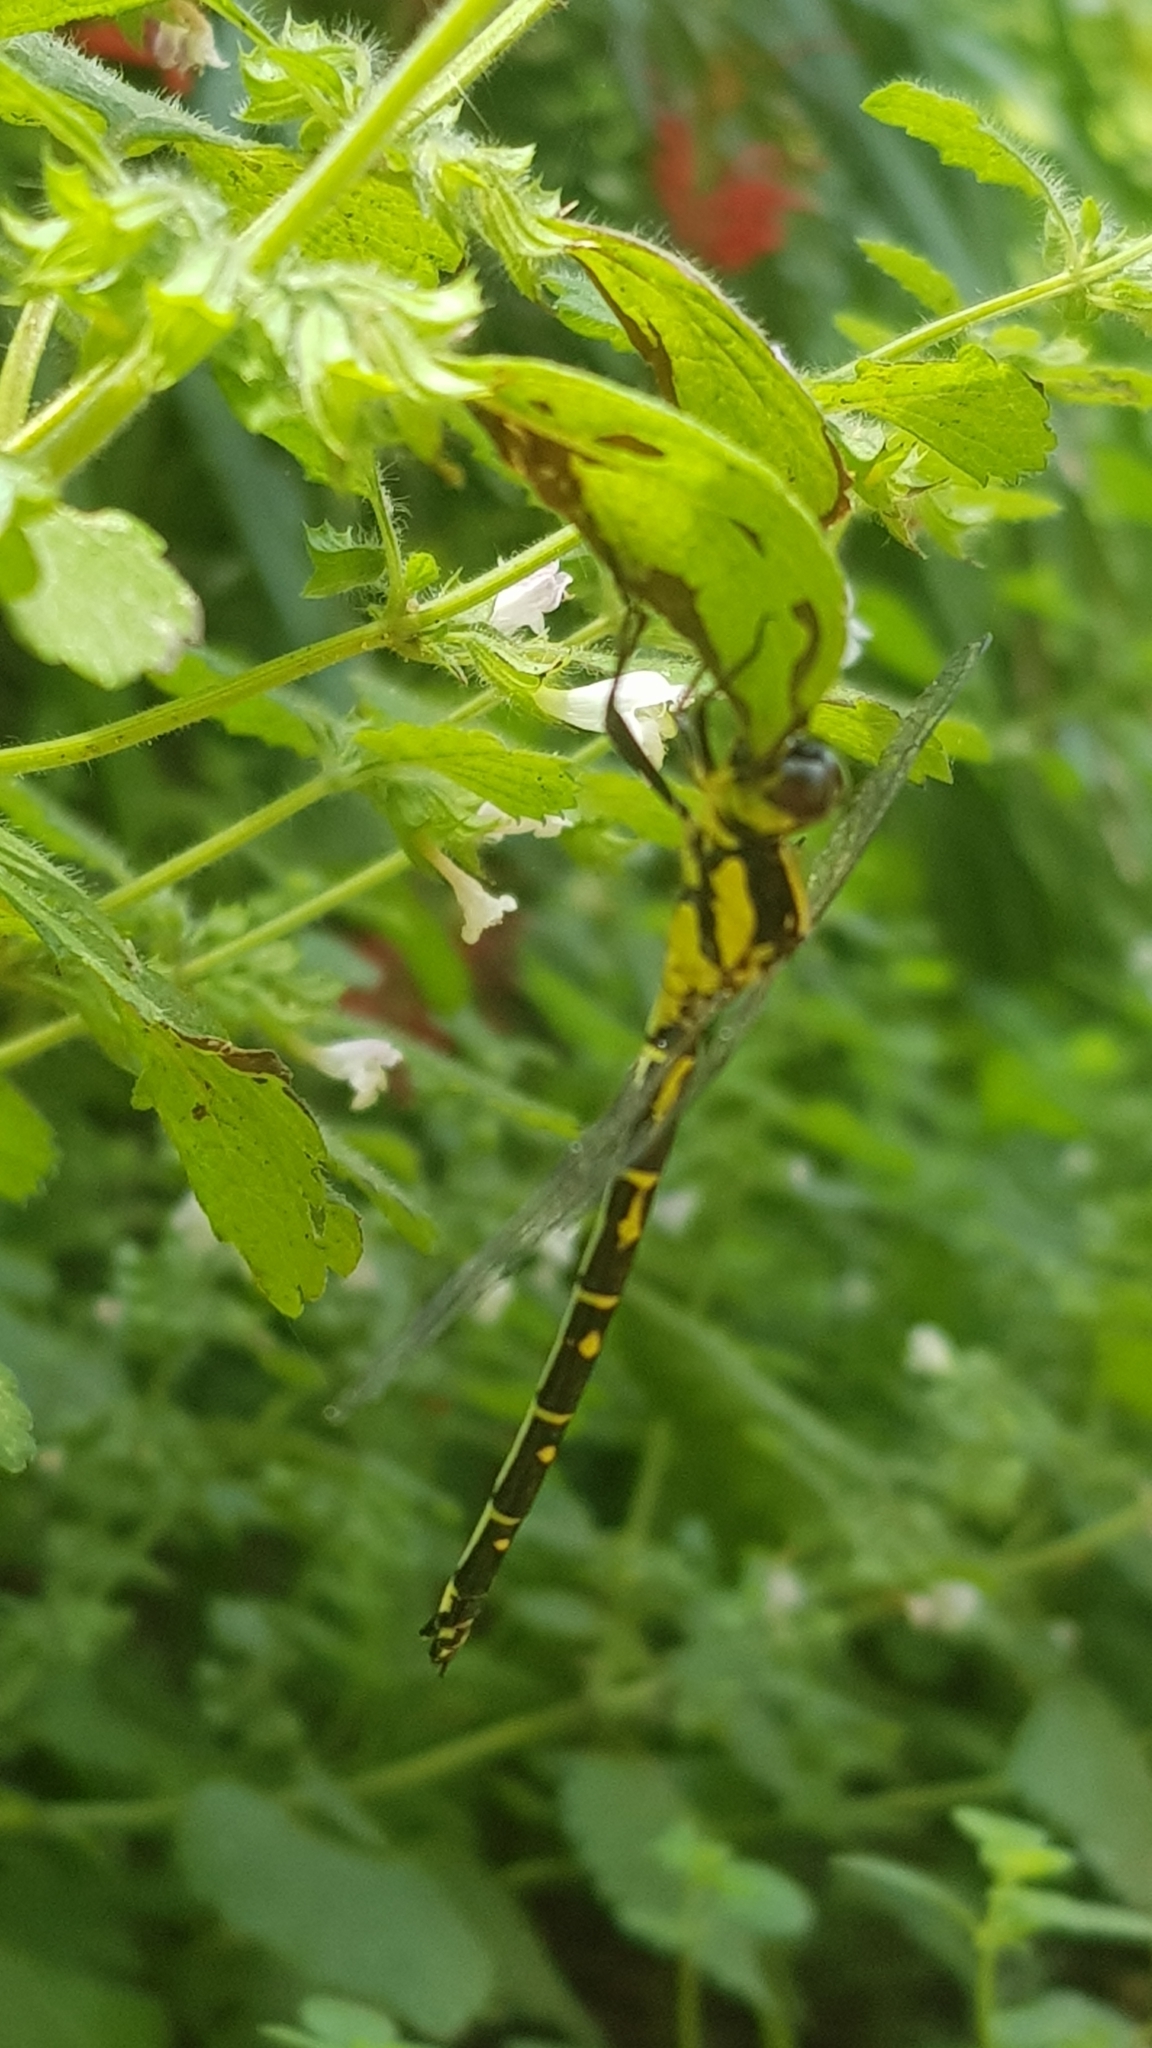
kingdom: Animalia
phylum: Arthropoda
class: Insecta
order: Odonata
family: Synthemistidae
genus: Choristhemis
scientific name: Choristhemis flavoterminata
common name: Yellow-tipped tigertail
